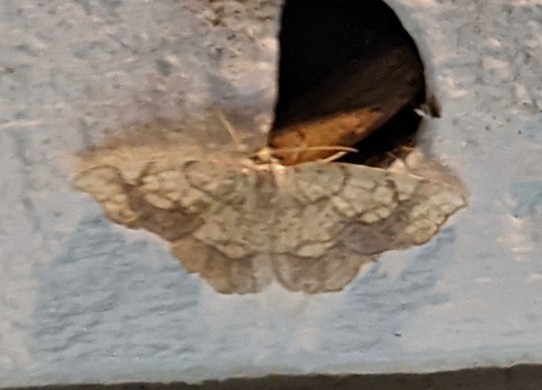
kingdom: Animalia
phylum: Arthropoda
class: Insecta
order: Lepidoptera
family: Geometridae
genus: Nematocampa
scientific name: Nematocampa resistaria
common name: Horned spanworm moth
